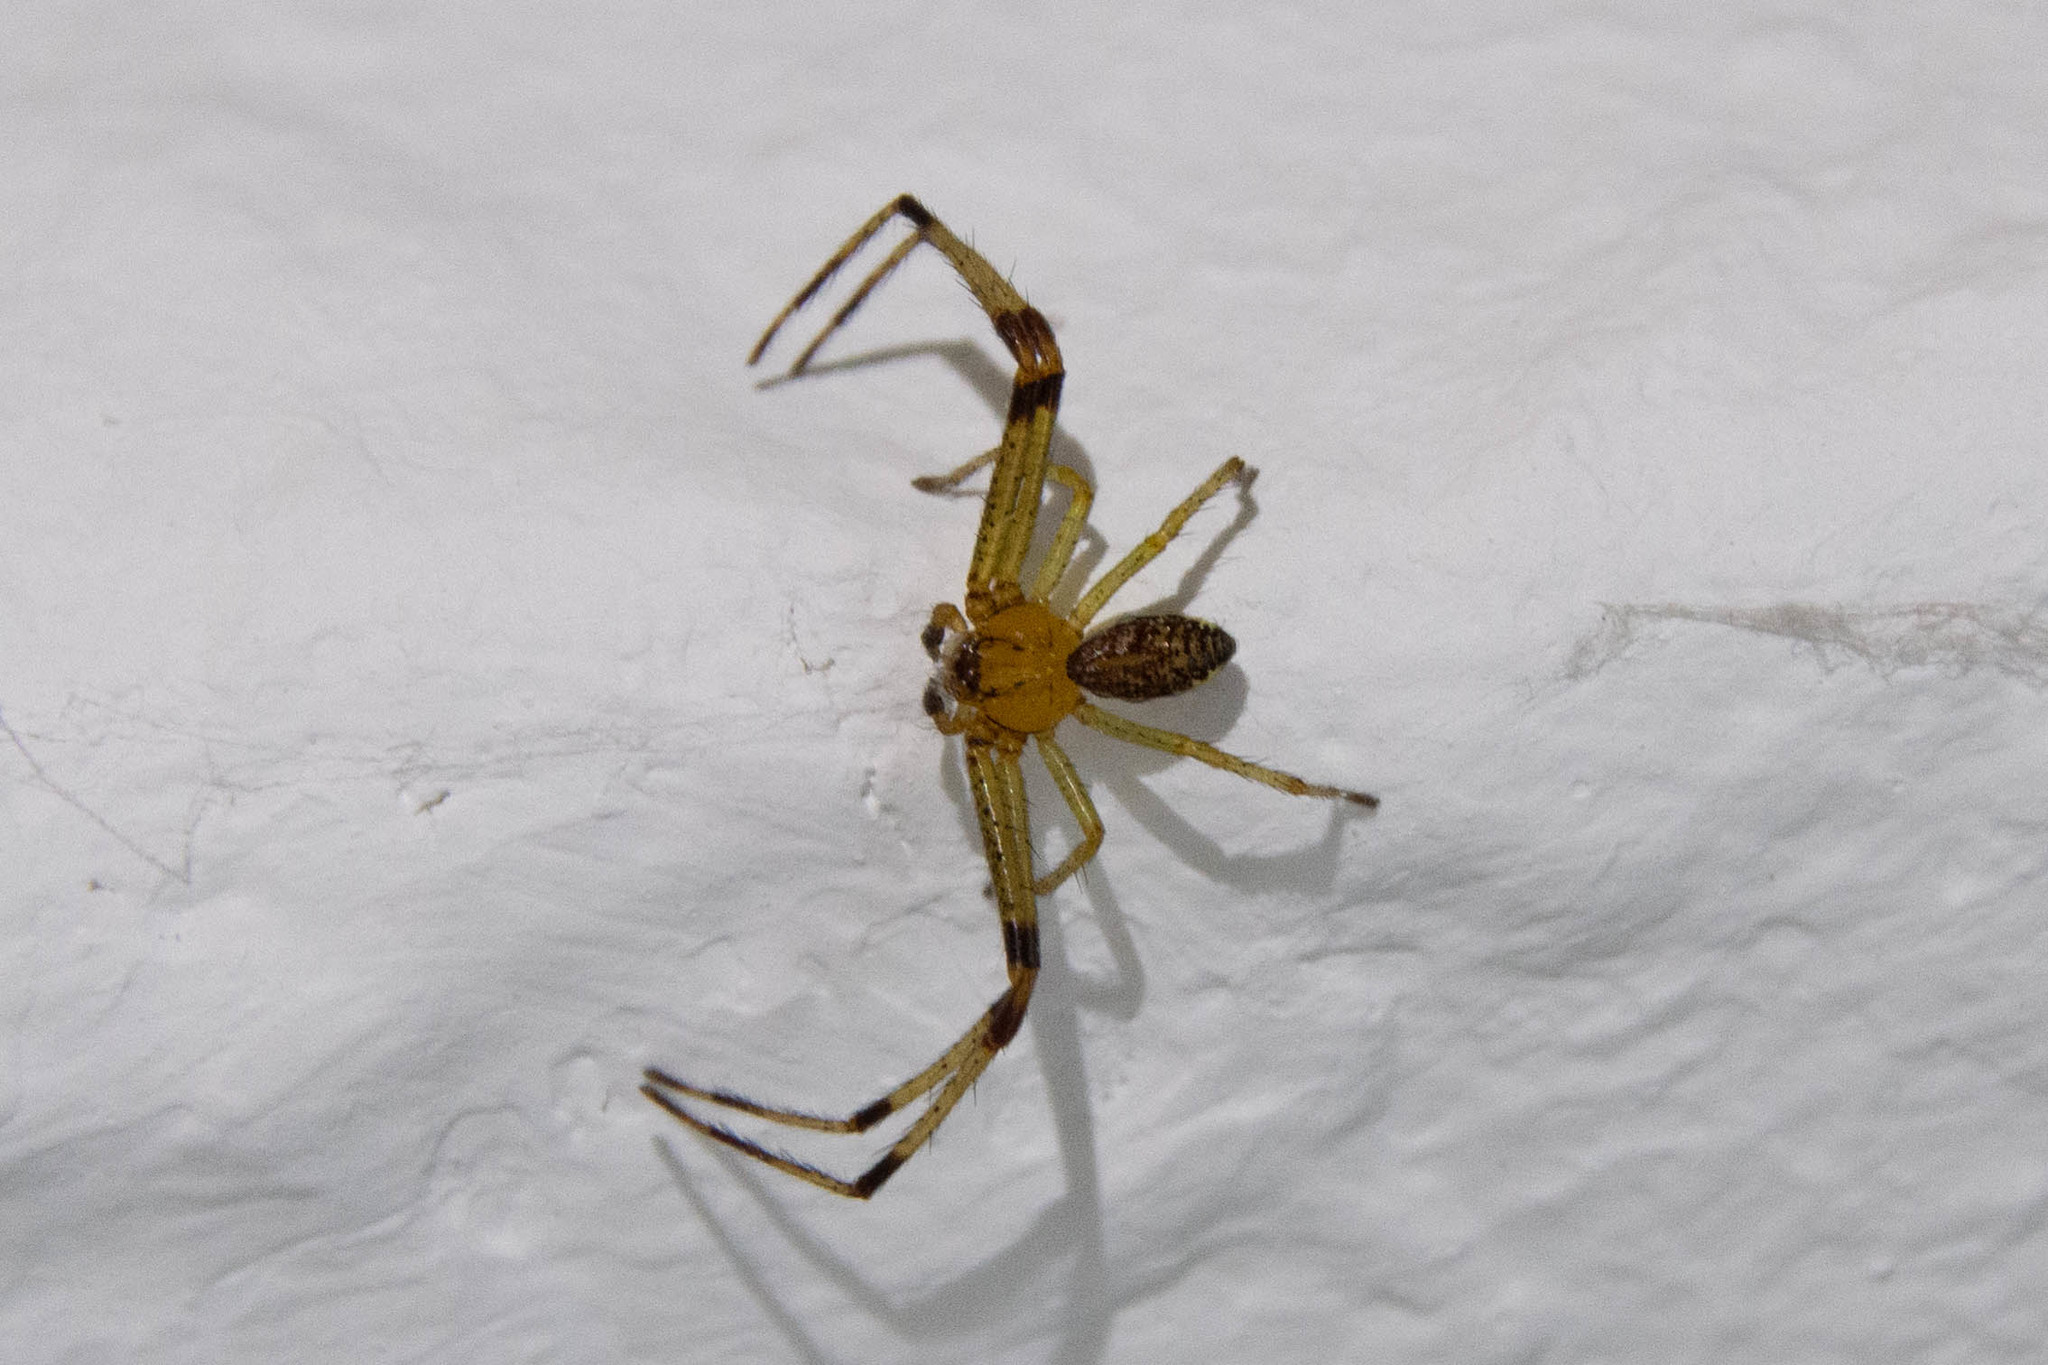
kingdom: Animalia
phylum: Arthropoda
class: Arachnida
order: Araneae
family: Thomisidae
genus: Diaea
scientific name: Diaea dorsata
